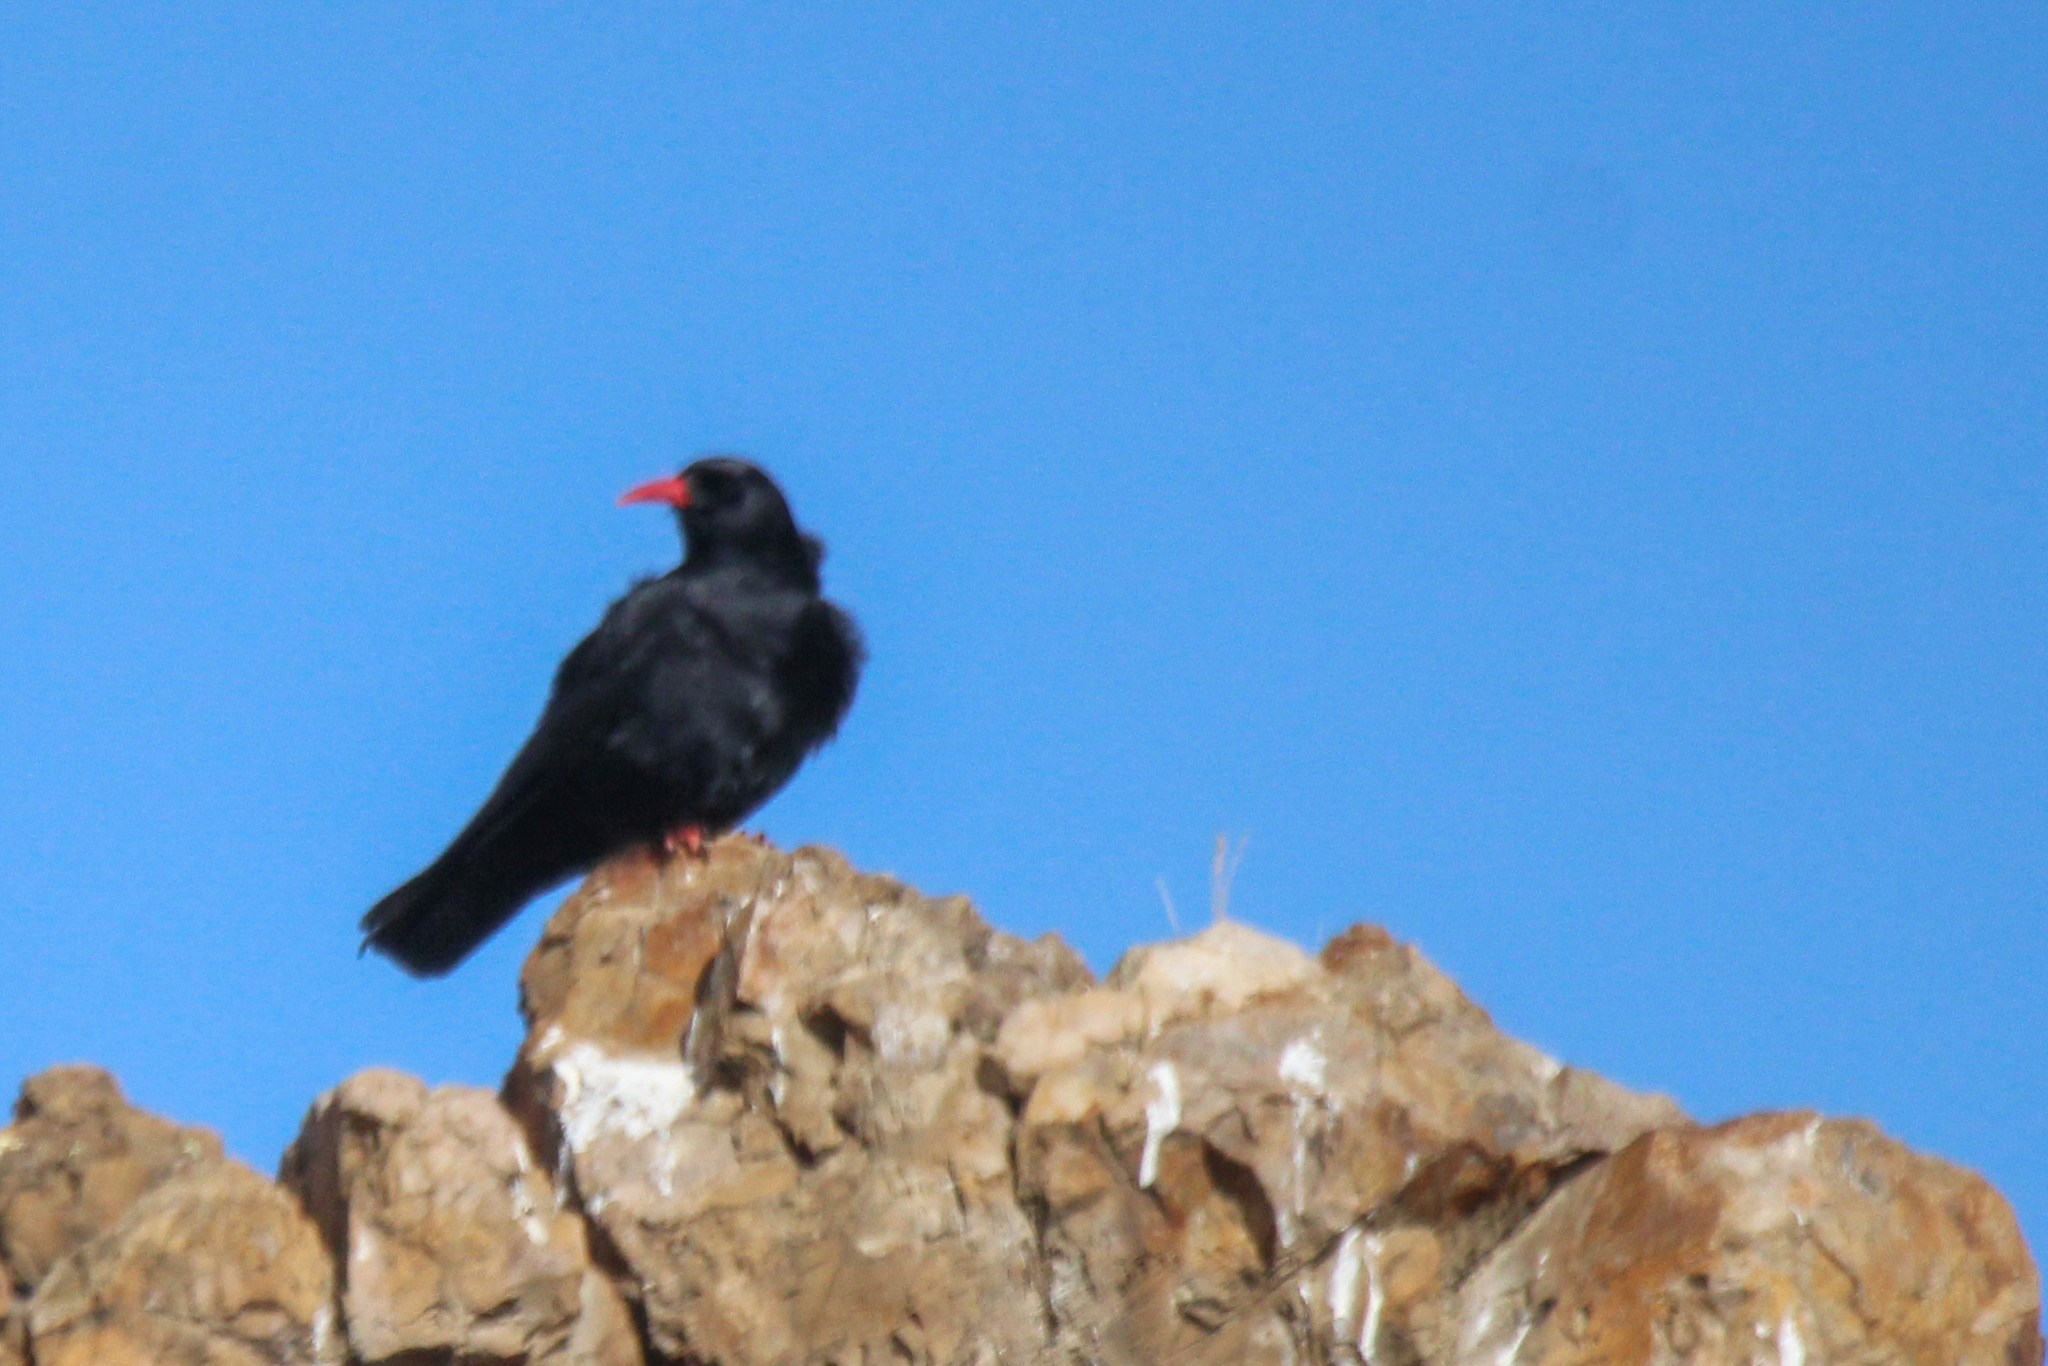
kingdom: Animalia
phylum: Chordata
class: Aves
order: Passeriformes
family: Corvidae
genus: Pyrrhocorax
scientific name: Pyrrhocorax pyrrhocorax
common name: Red-billed chough
